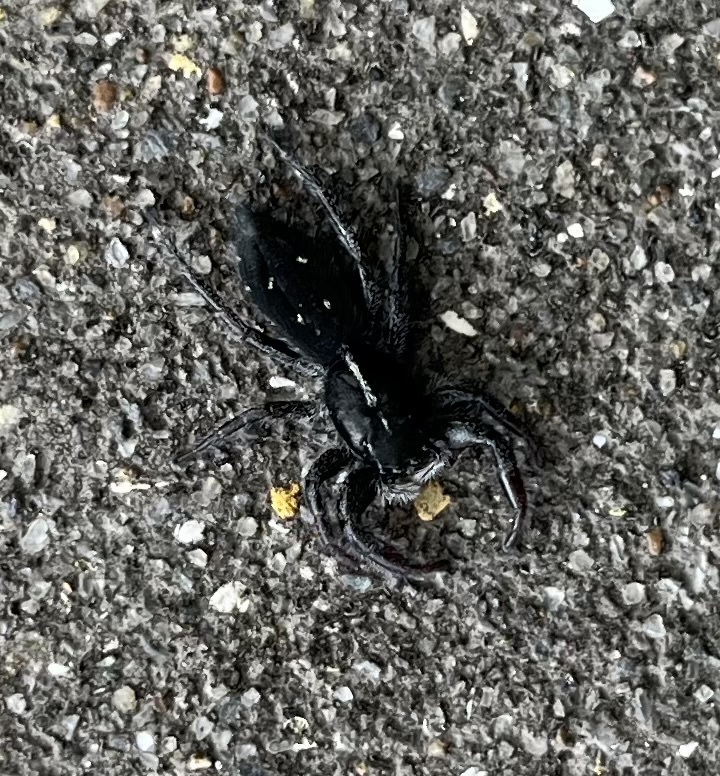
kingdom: Animalia
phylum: Arthropoda
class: Arachnida
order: Araneae
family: Salticidae
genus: Ocrisiona
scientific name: Ocrisiona leucocomis
